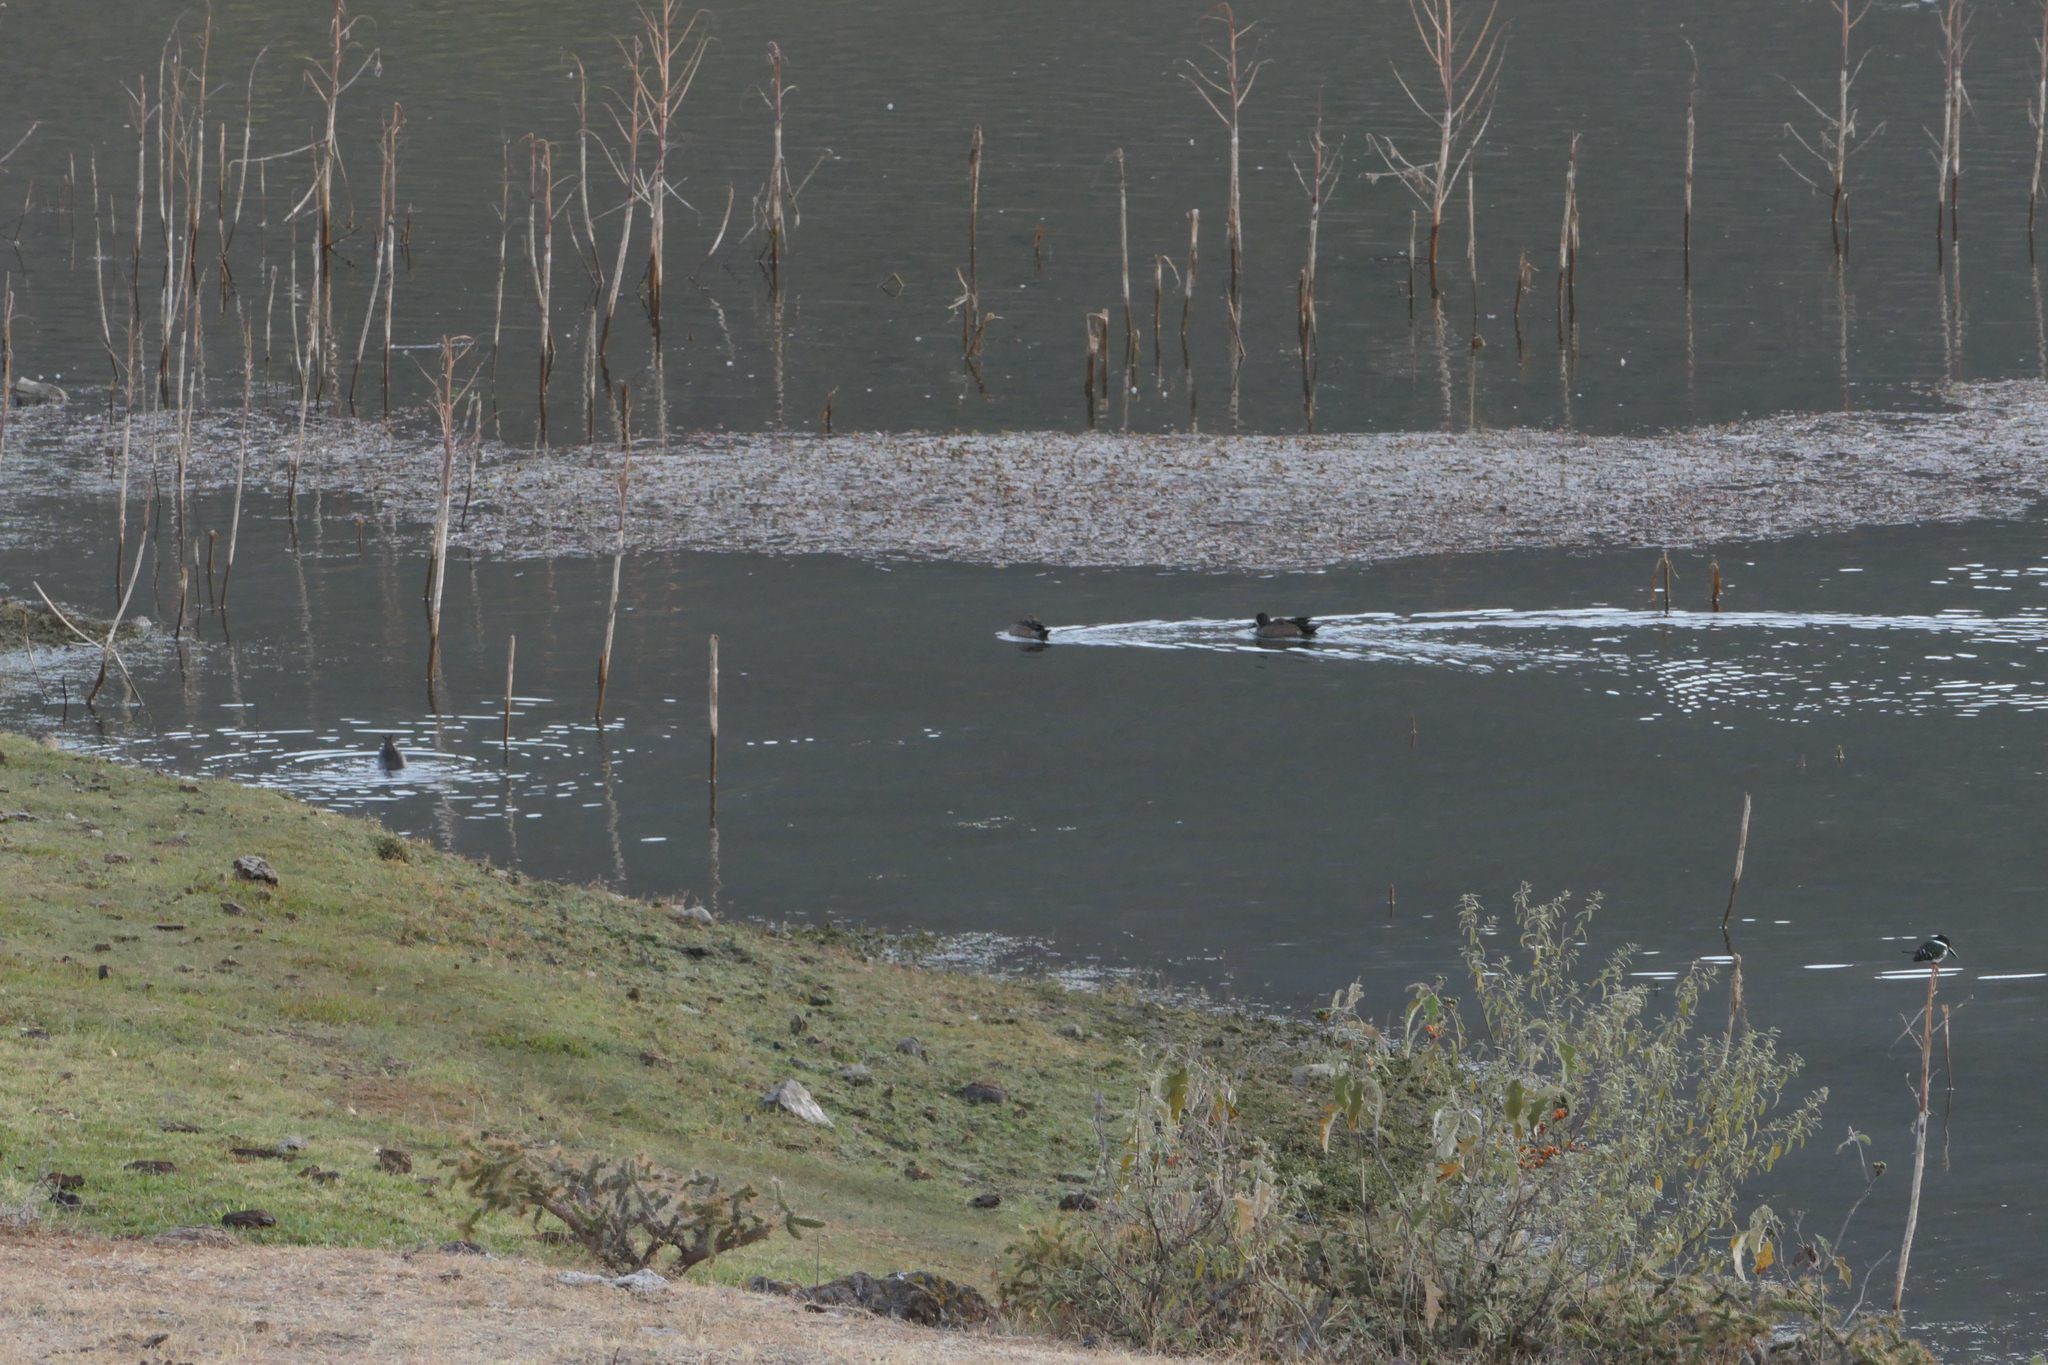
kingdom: Animalia
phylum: Chordata
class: Aves
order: Anseriformes
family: Anatidae
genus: Spatula
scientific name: Spatula discors
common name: Blue-winged teal
